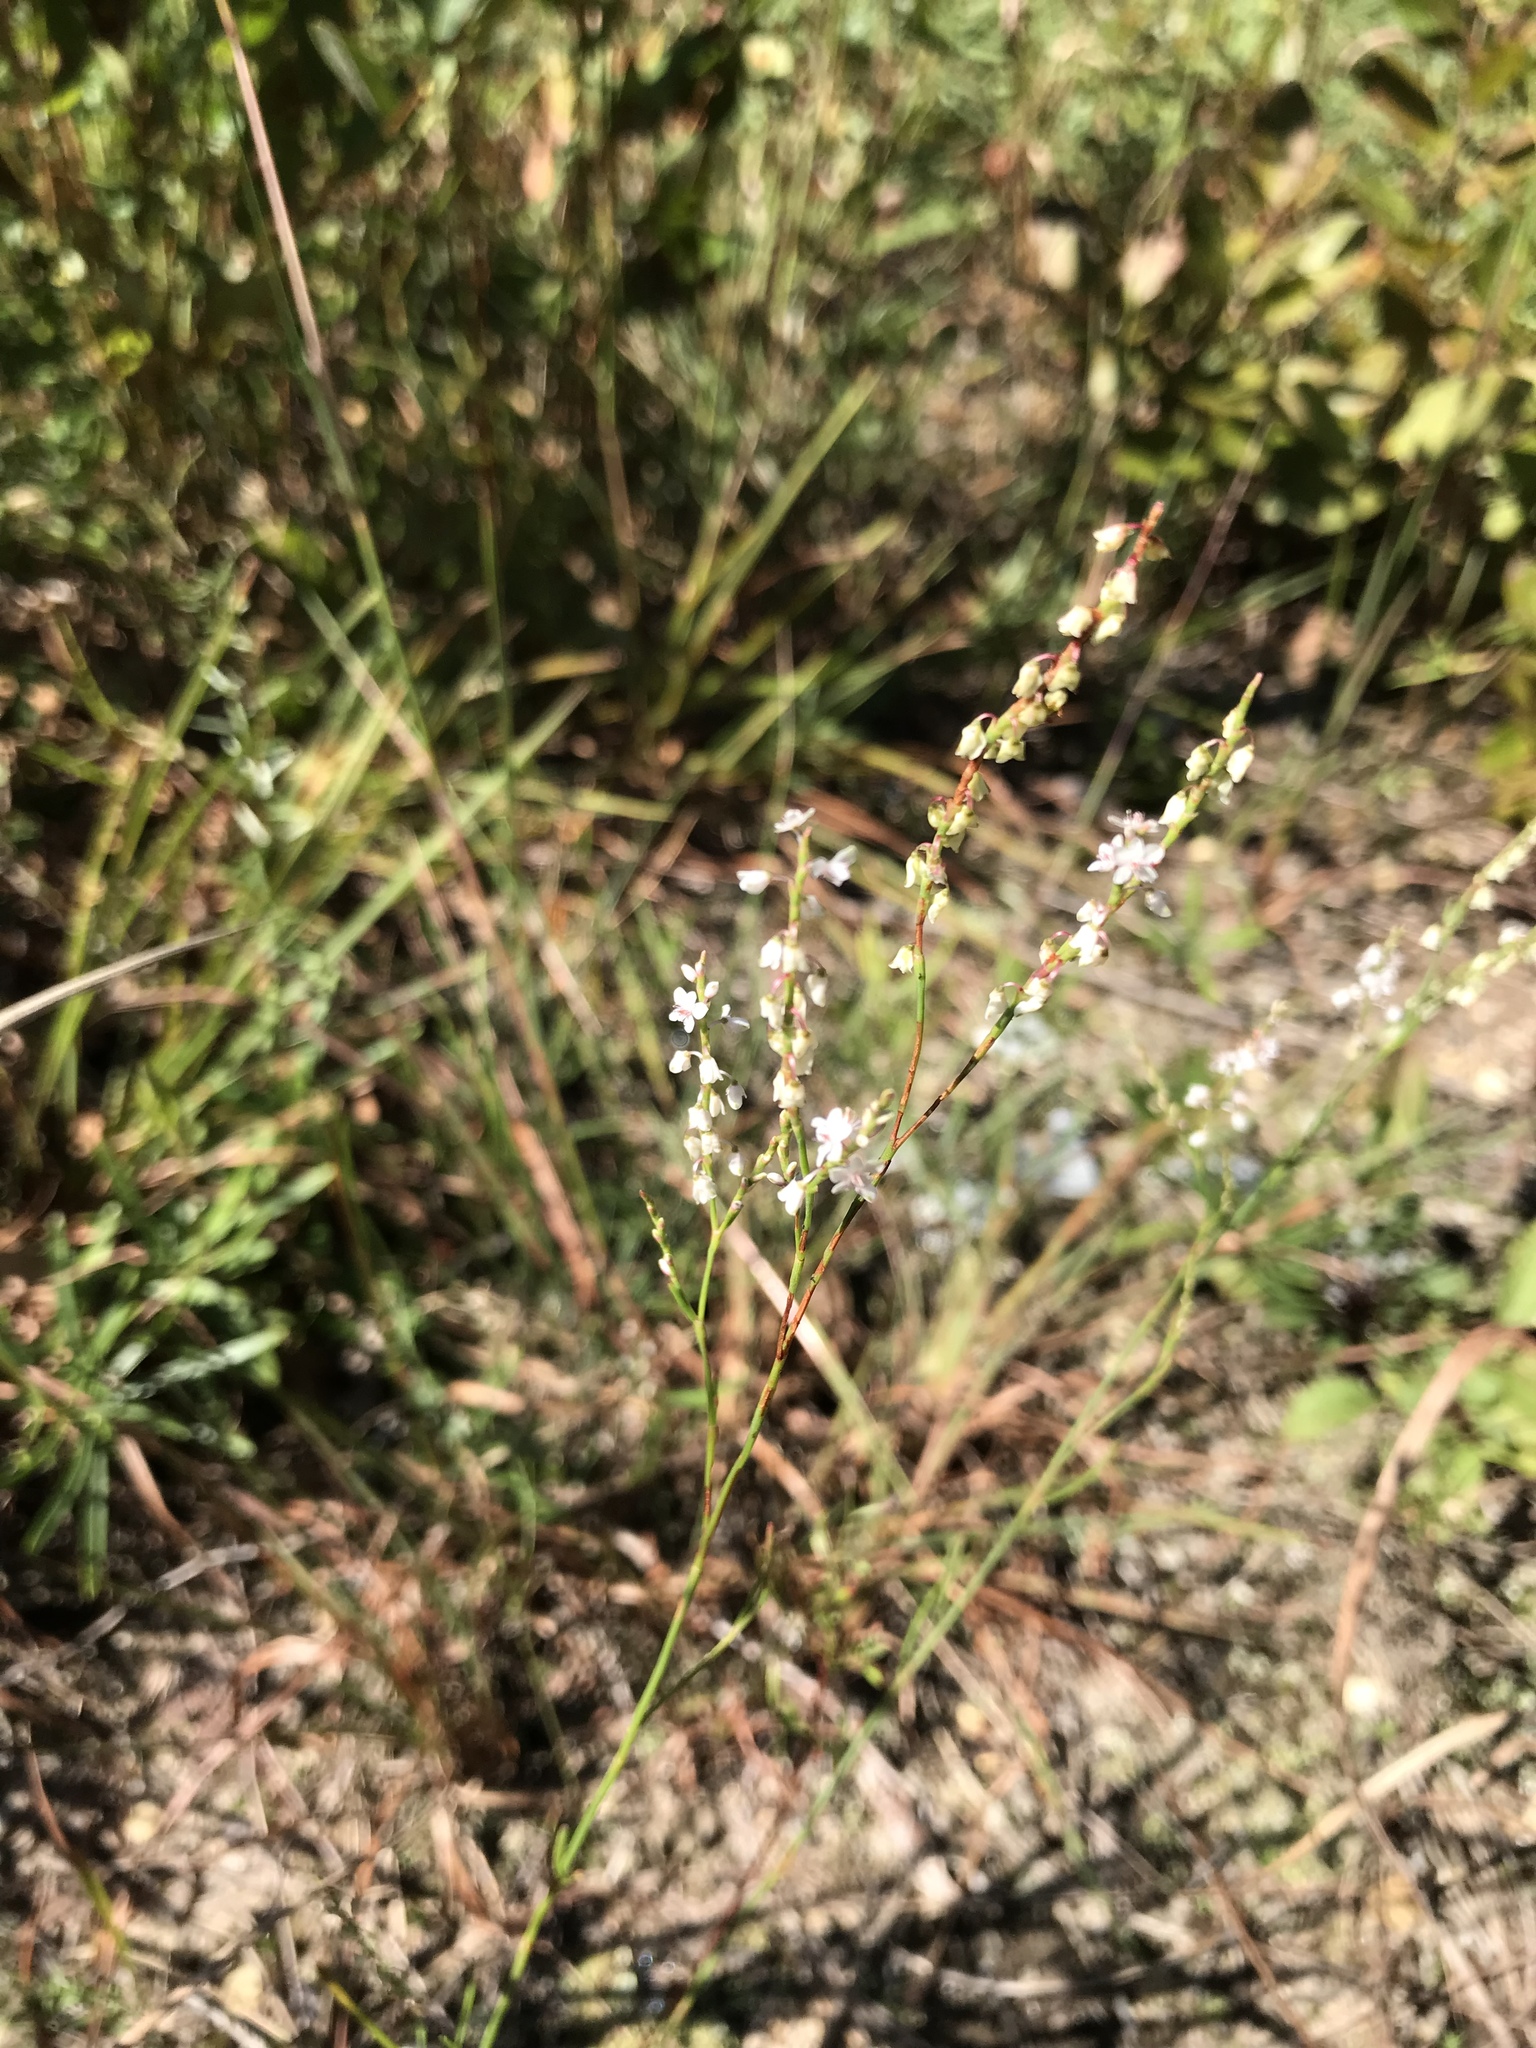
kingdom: Plantae
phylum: Tracheophyta
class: Magnoliopsida
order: Caryophyllales
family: Polygonaceae
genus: Polygonella
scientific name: Polygonella articulata
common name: Coastal jointweed
